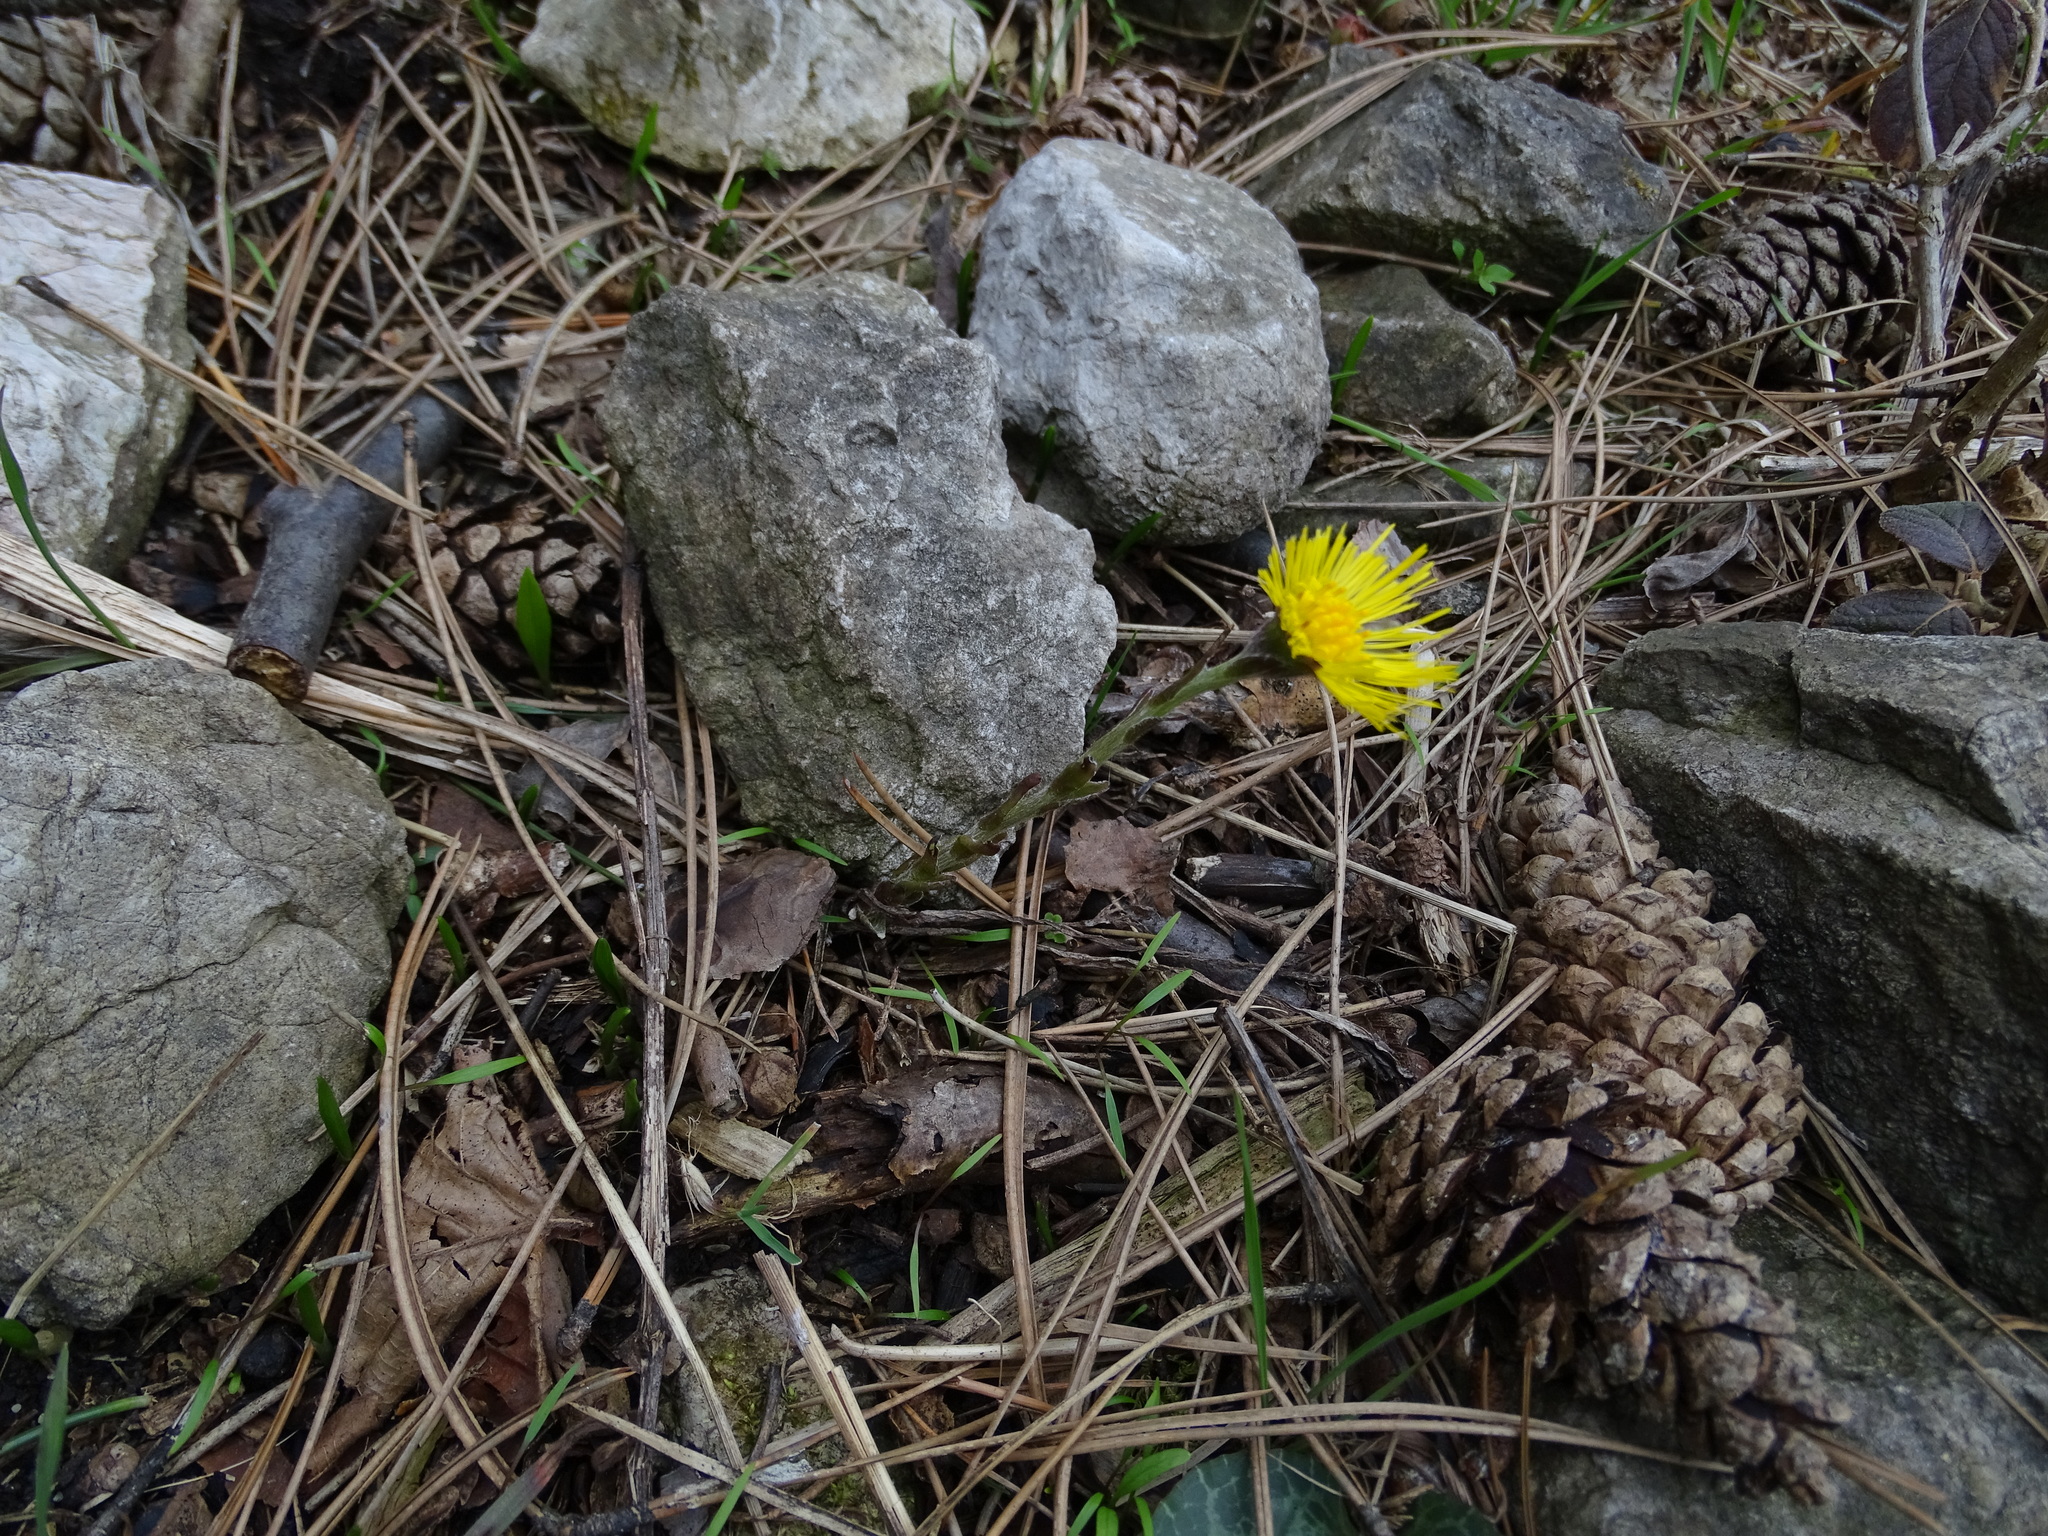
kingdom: Plantae
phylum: Tracheophyta
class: Magnoliopsida
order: Asterales
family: Asteraceae
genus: Tussilago
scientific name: Tussilago farfara
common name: Coltsfoot
